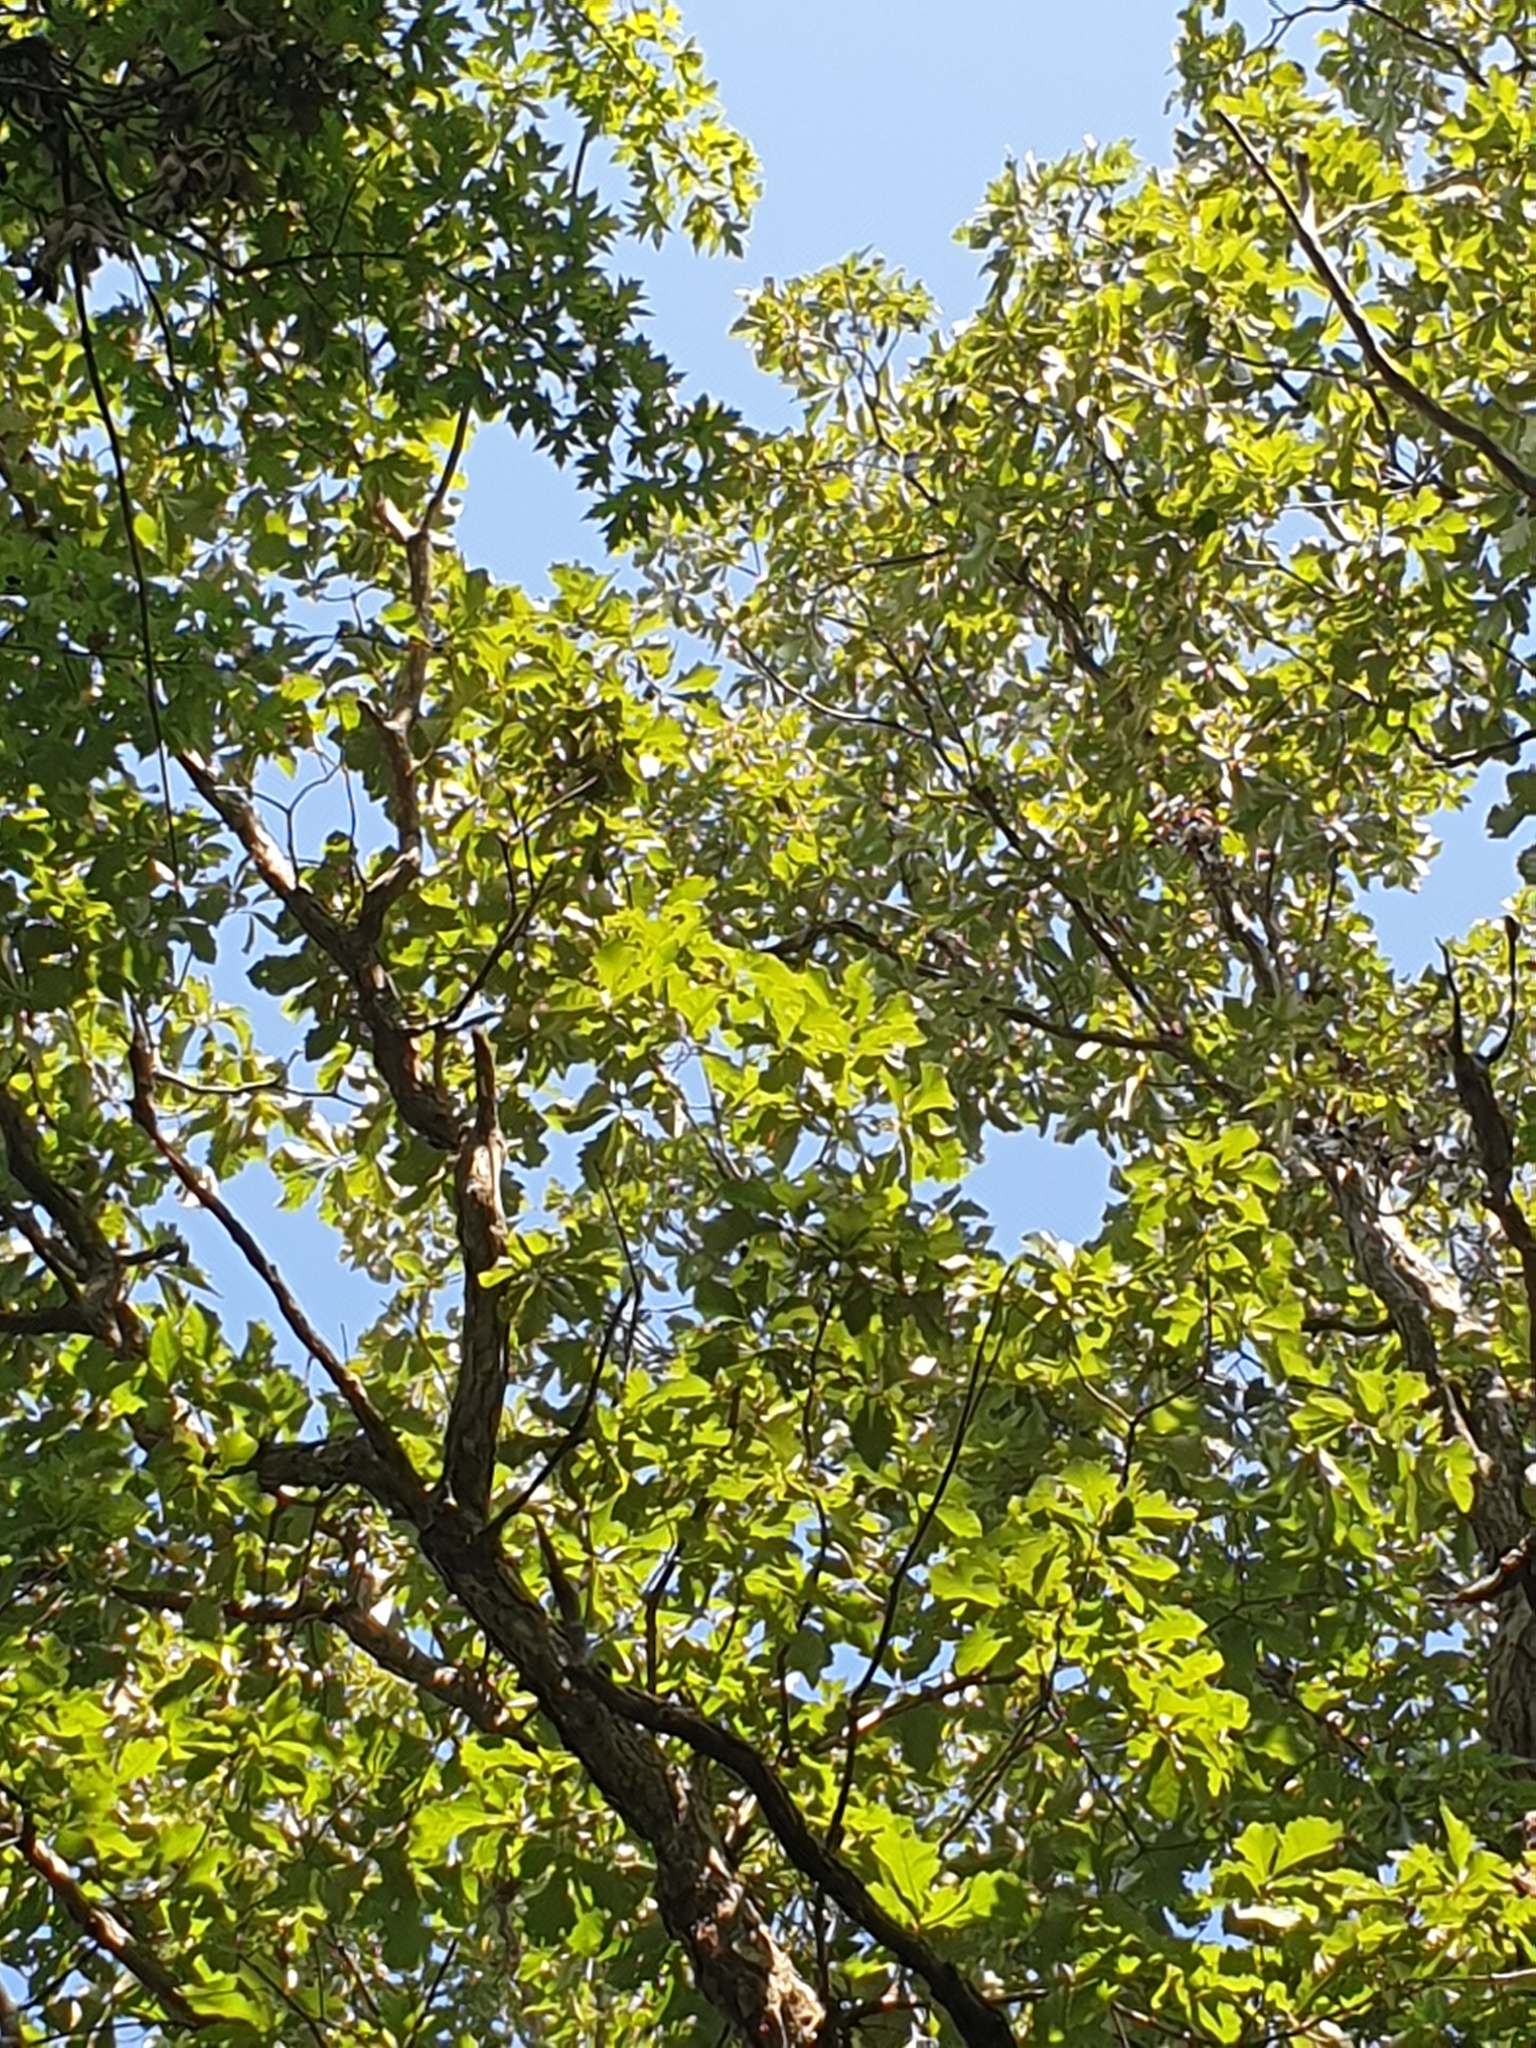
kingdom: Plantae
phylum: Tracheophyta
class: Magnoliopsida
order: Fagales
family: Fagaceae
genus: Quercus
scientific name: Quercus bicolor
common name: Swamp white oak
